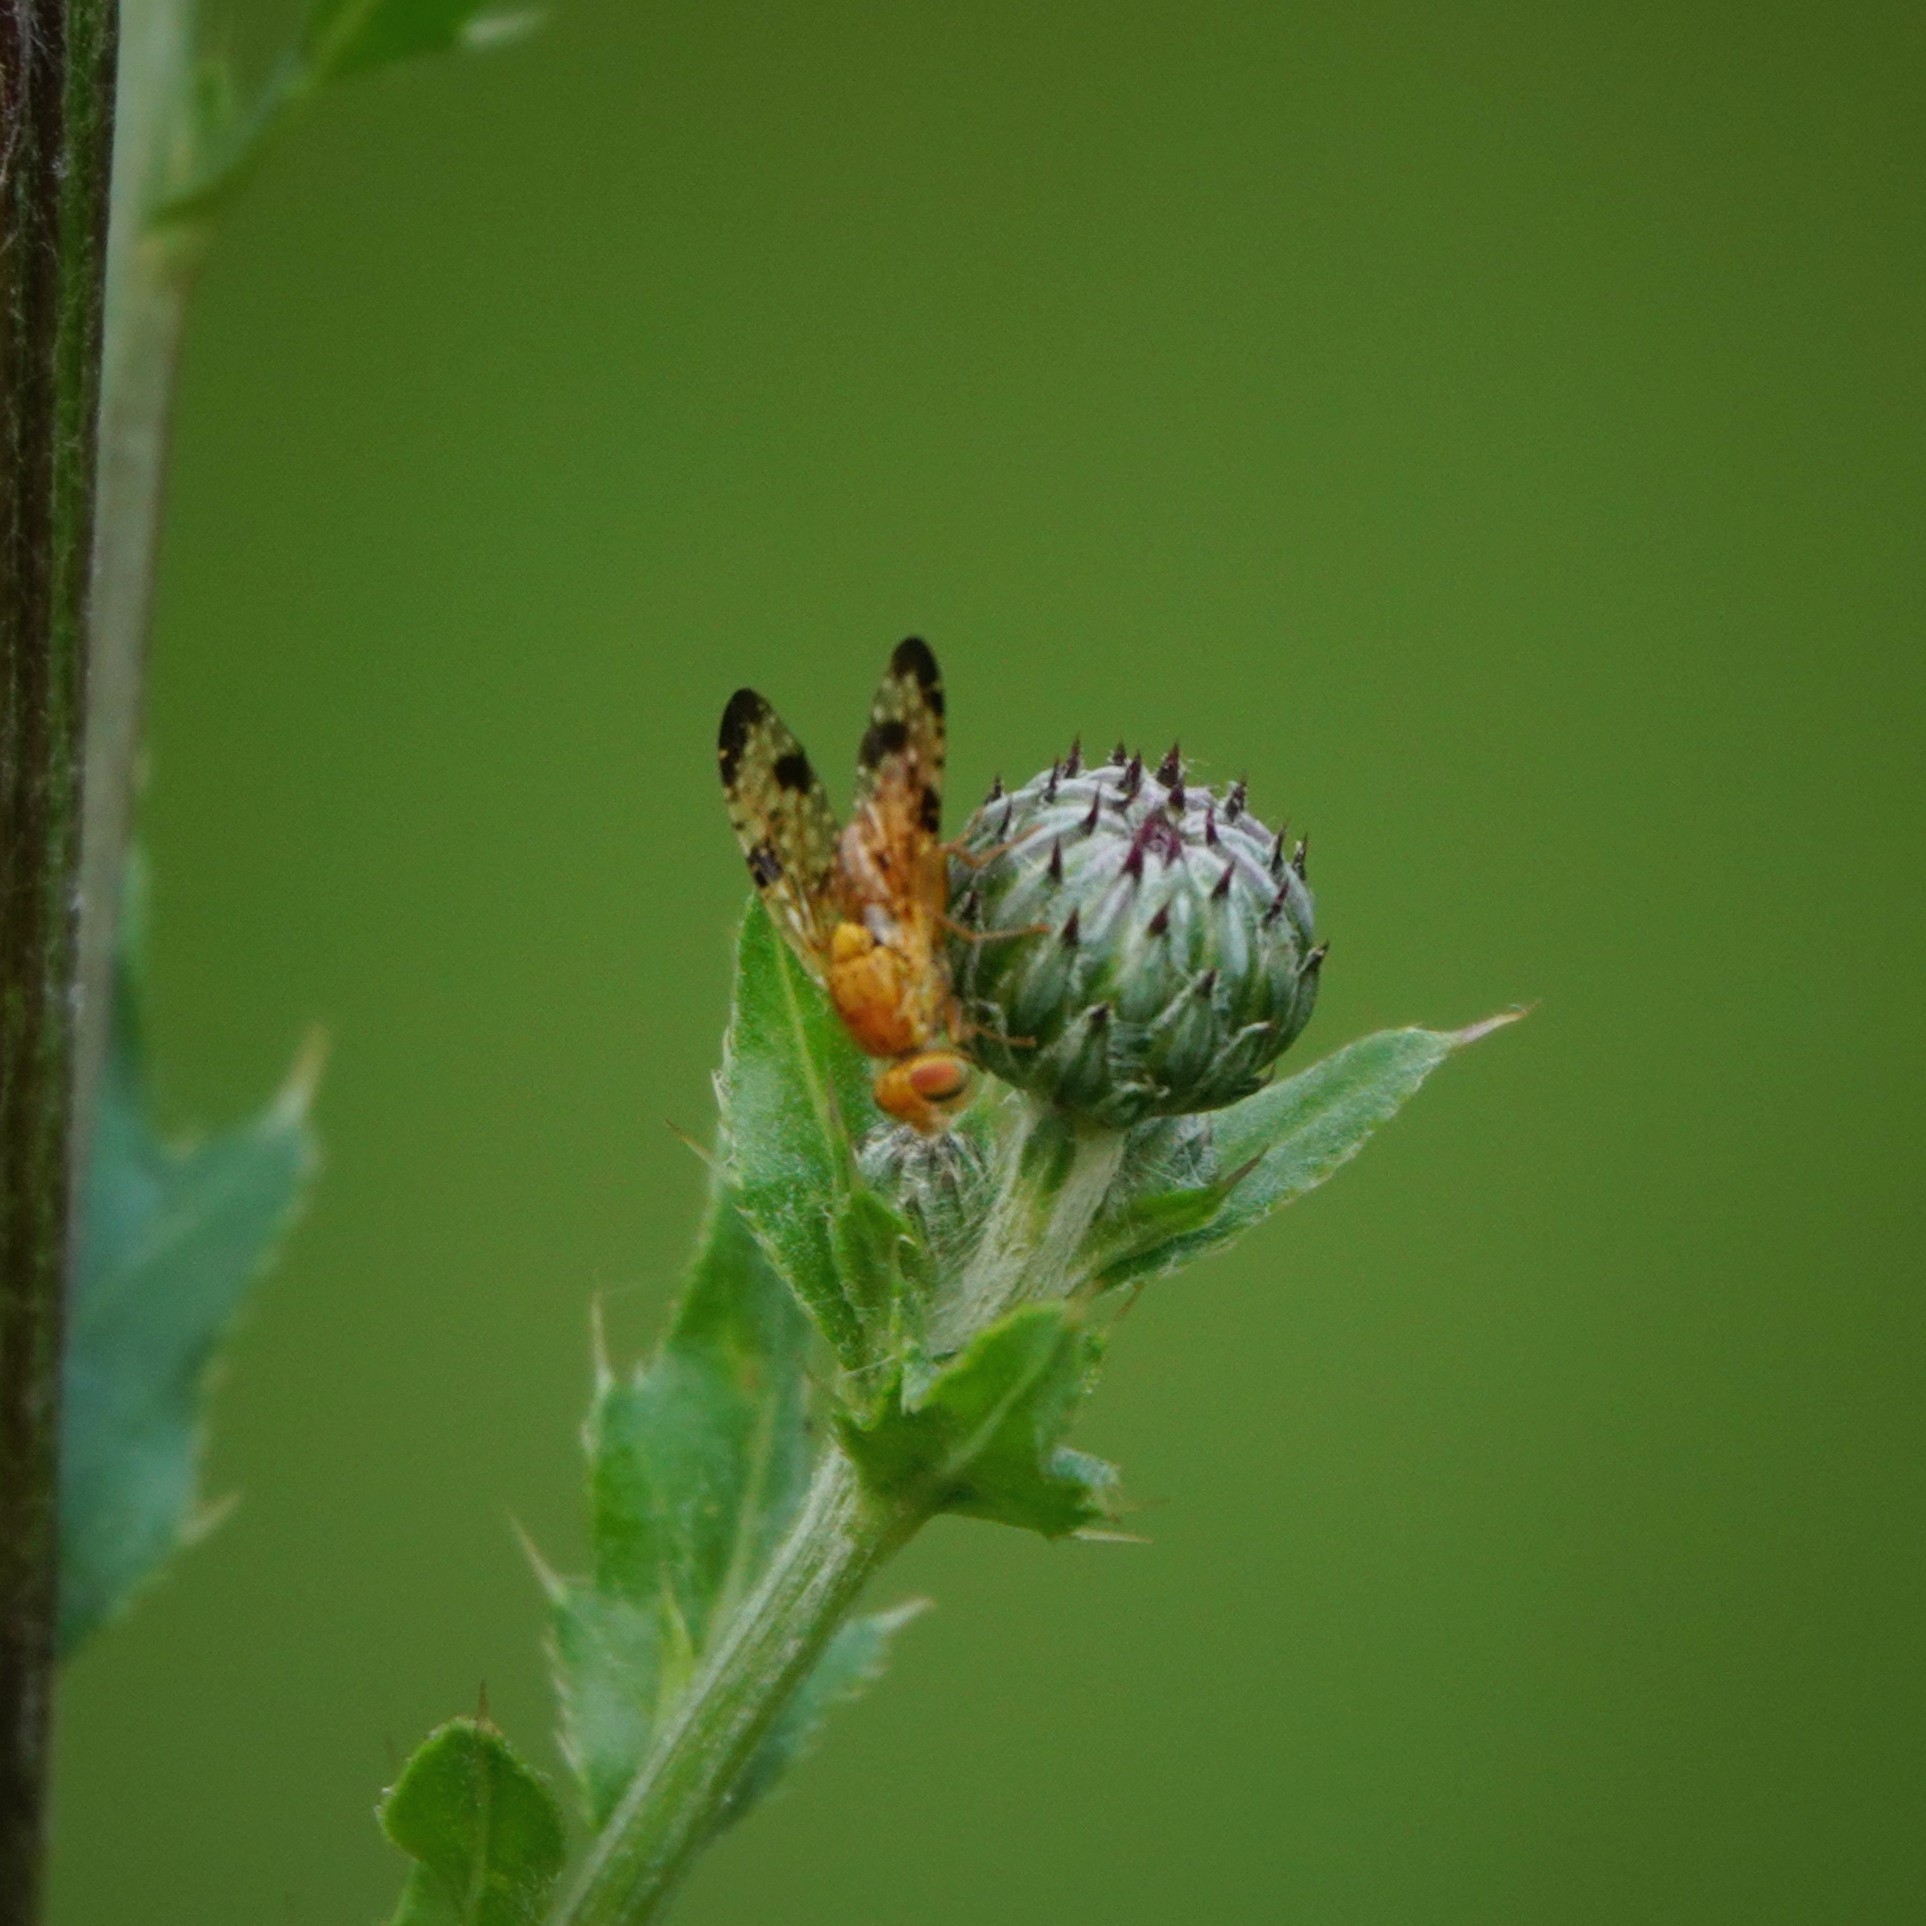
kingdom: Animalia
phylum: Arthropoda
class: Insecta
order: Diptera
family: Tephritidae
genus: Xyphosia
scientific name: Xyphosia miliaria
